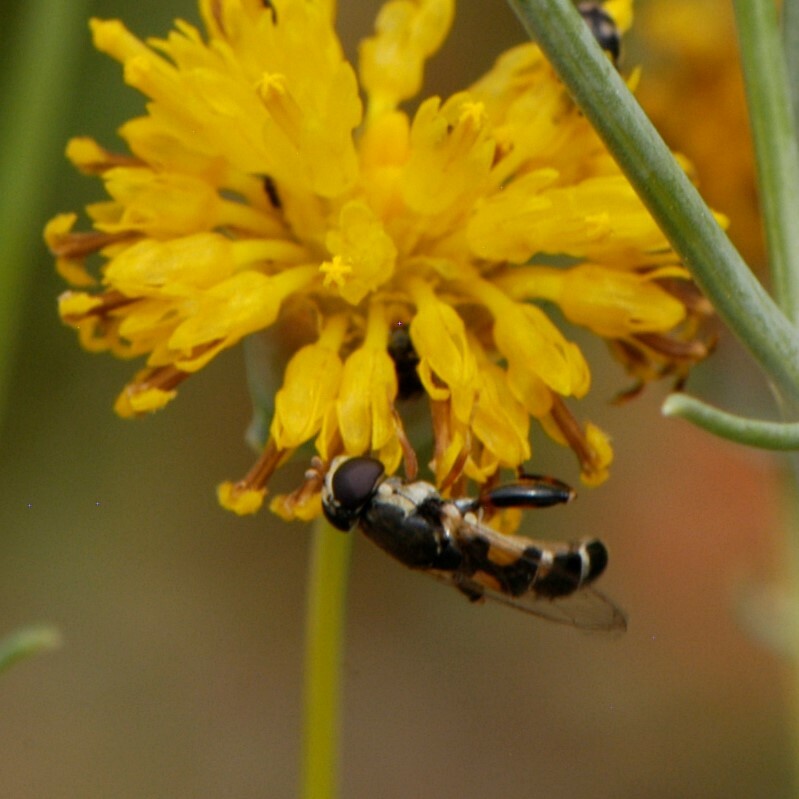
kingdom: Animalia
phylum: Arthropoda
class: Insecta
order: Diptera
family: Syrphidae
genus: Syritta
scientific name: Syritta pipiens
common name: Hover fly
